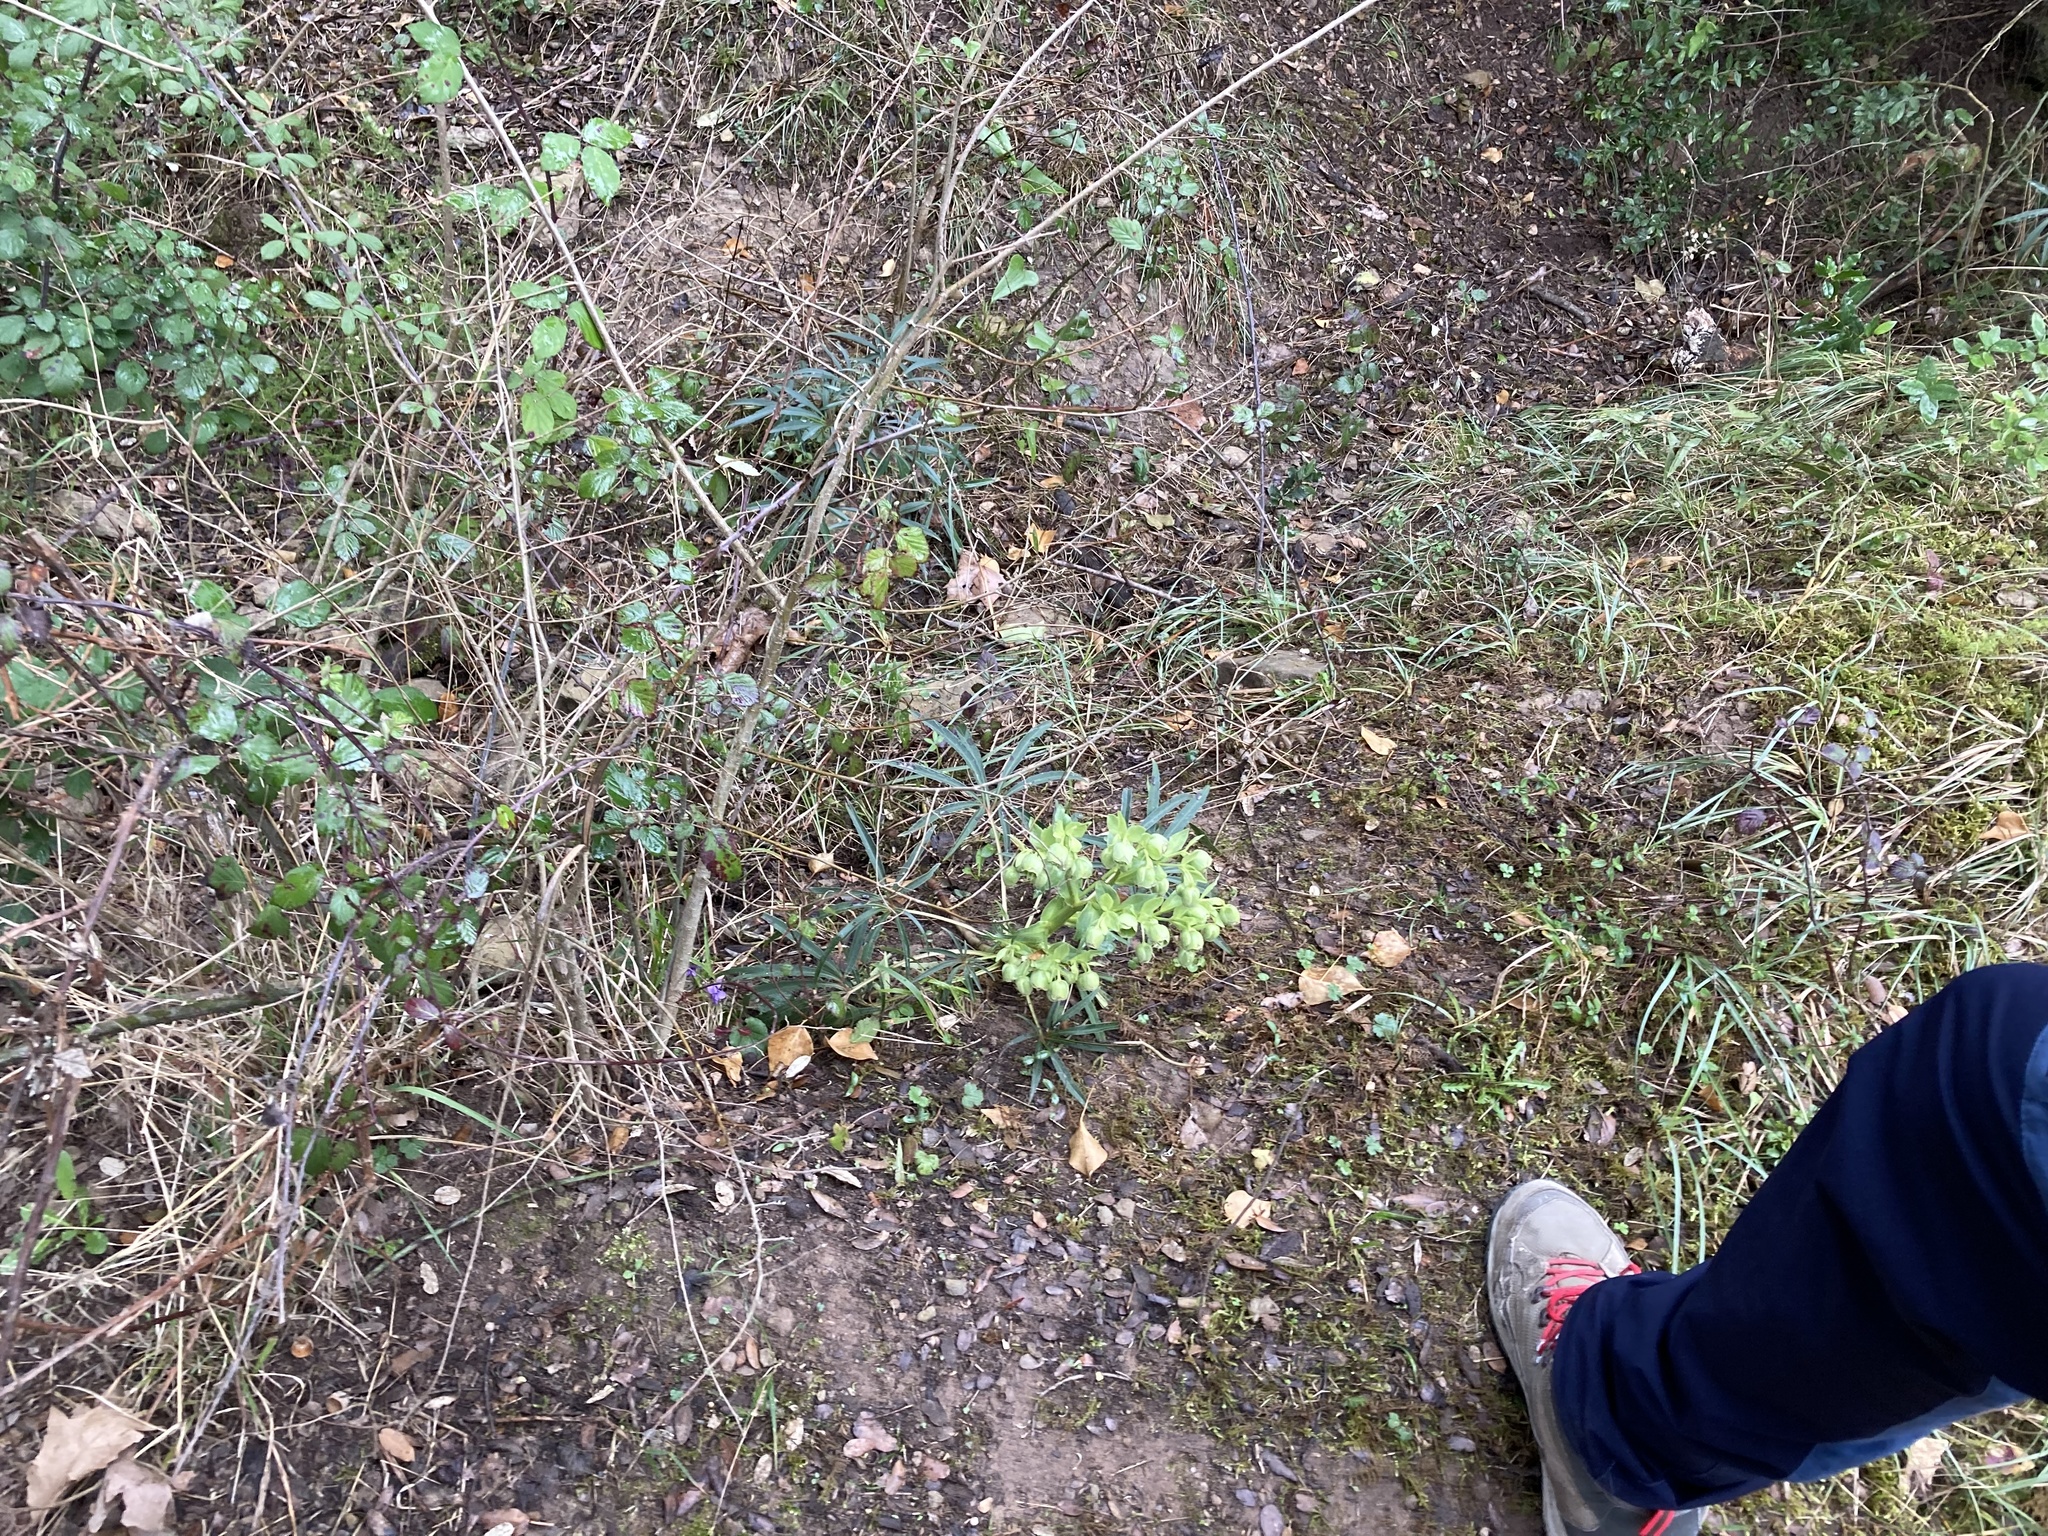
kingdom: Plantae
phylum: Tracheophyta
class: Magnoliopsida
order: Ranunculales
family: Ranunculaceae
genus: Helleborus
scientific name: Helleborus foetidus
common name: Stinking hellebore
